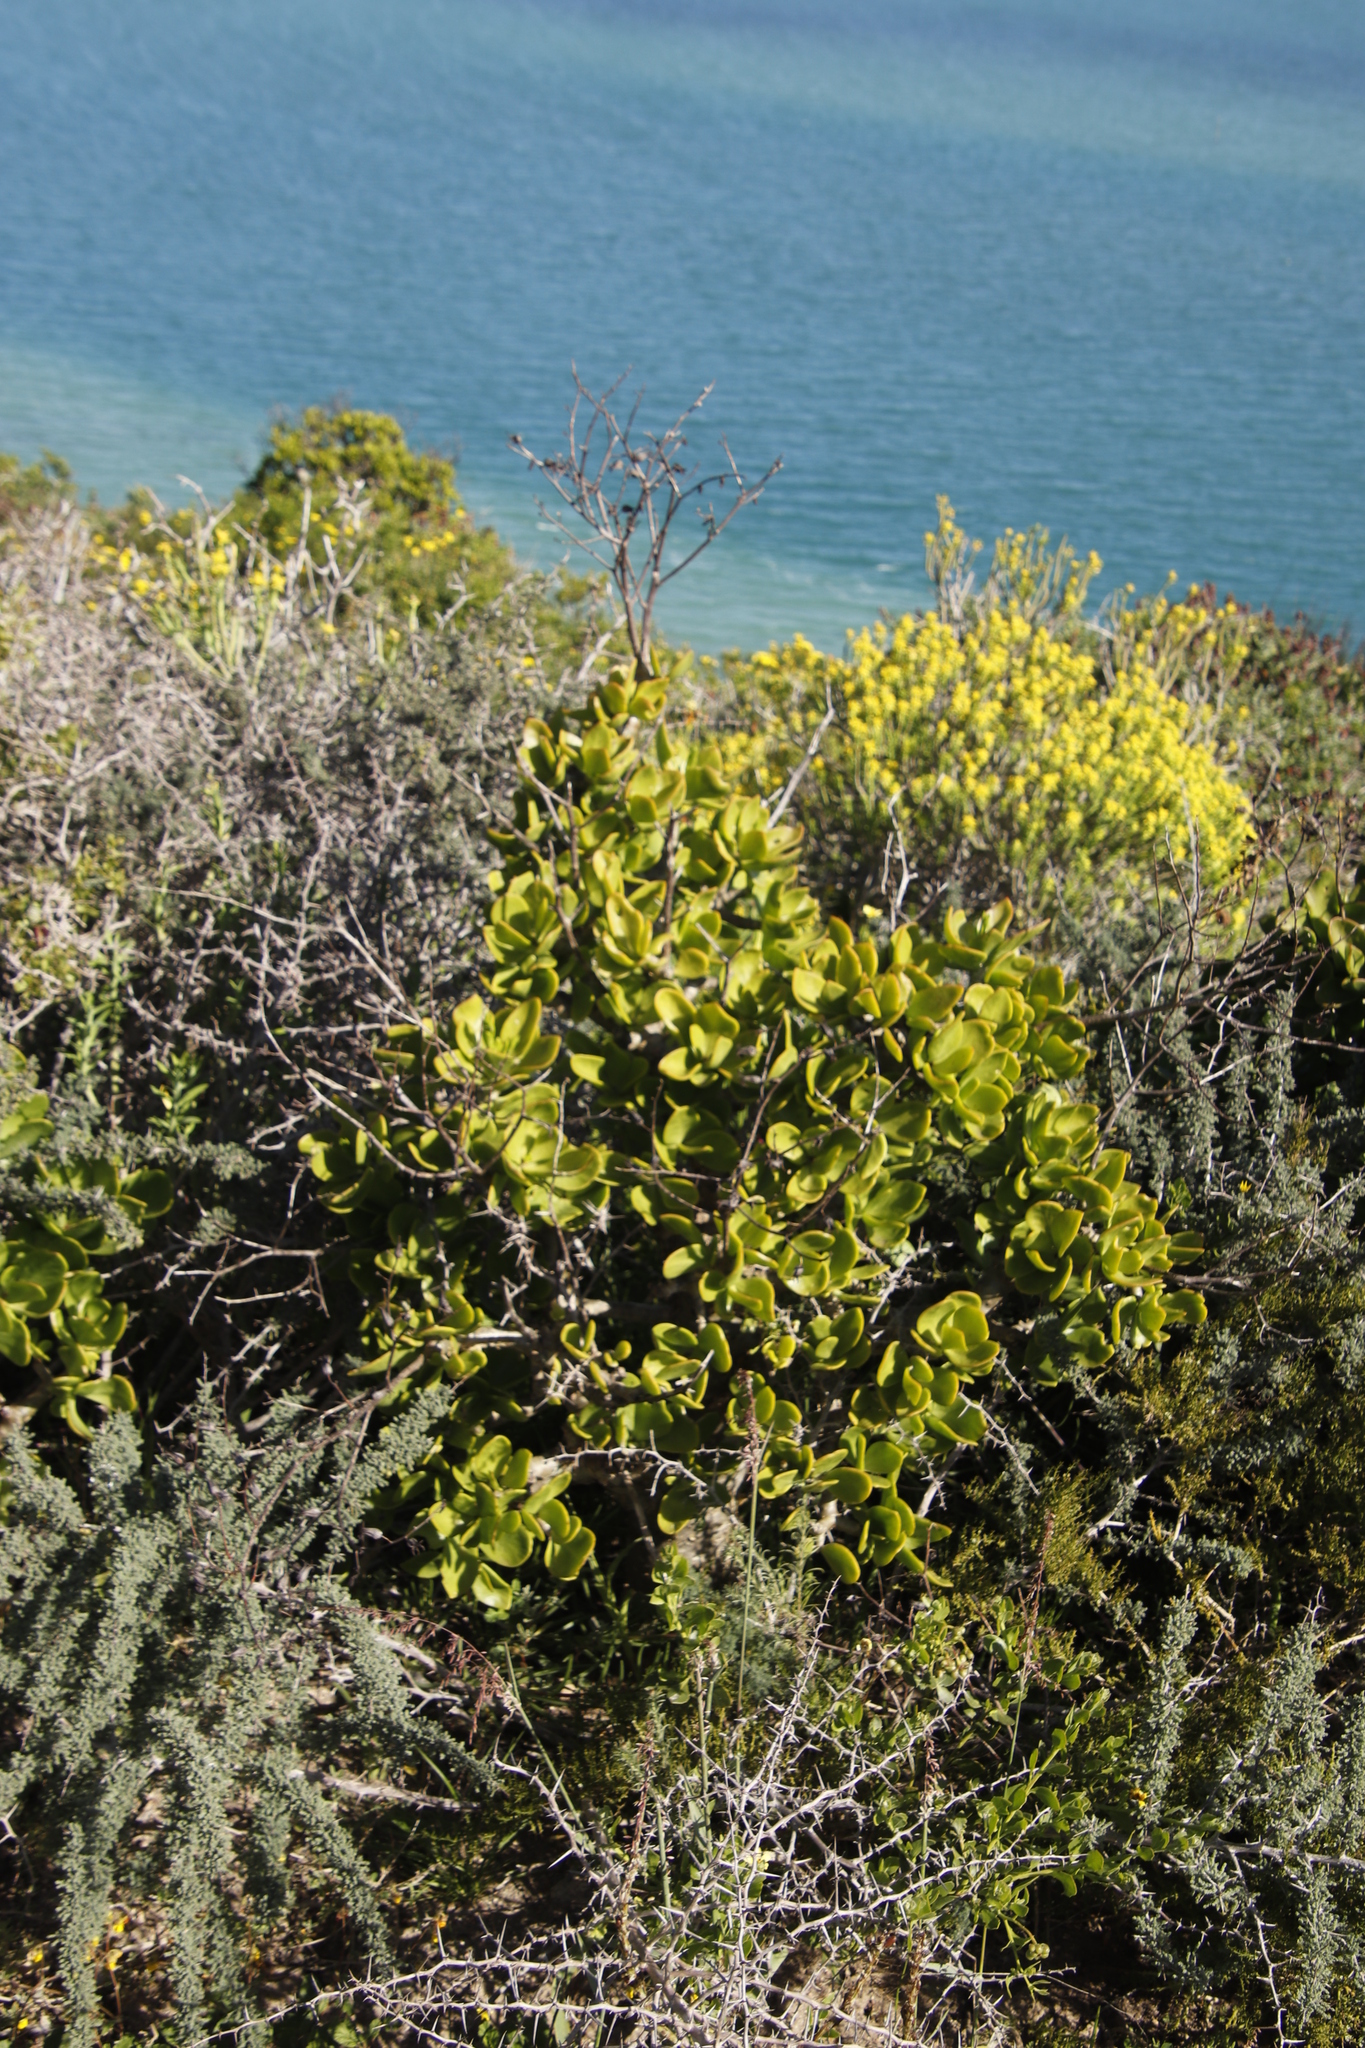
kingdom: Plantae
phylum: Tracheophyta
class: Magnoliopsida
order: Saxifragales
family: Crassulaceae
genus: Tylecodon
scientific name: Tylecodon paniculatus
